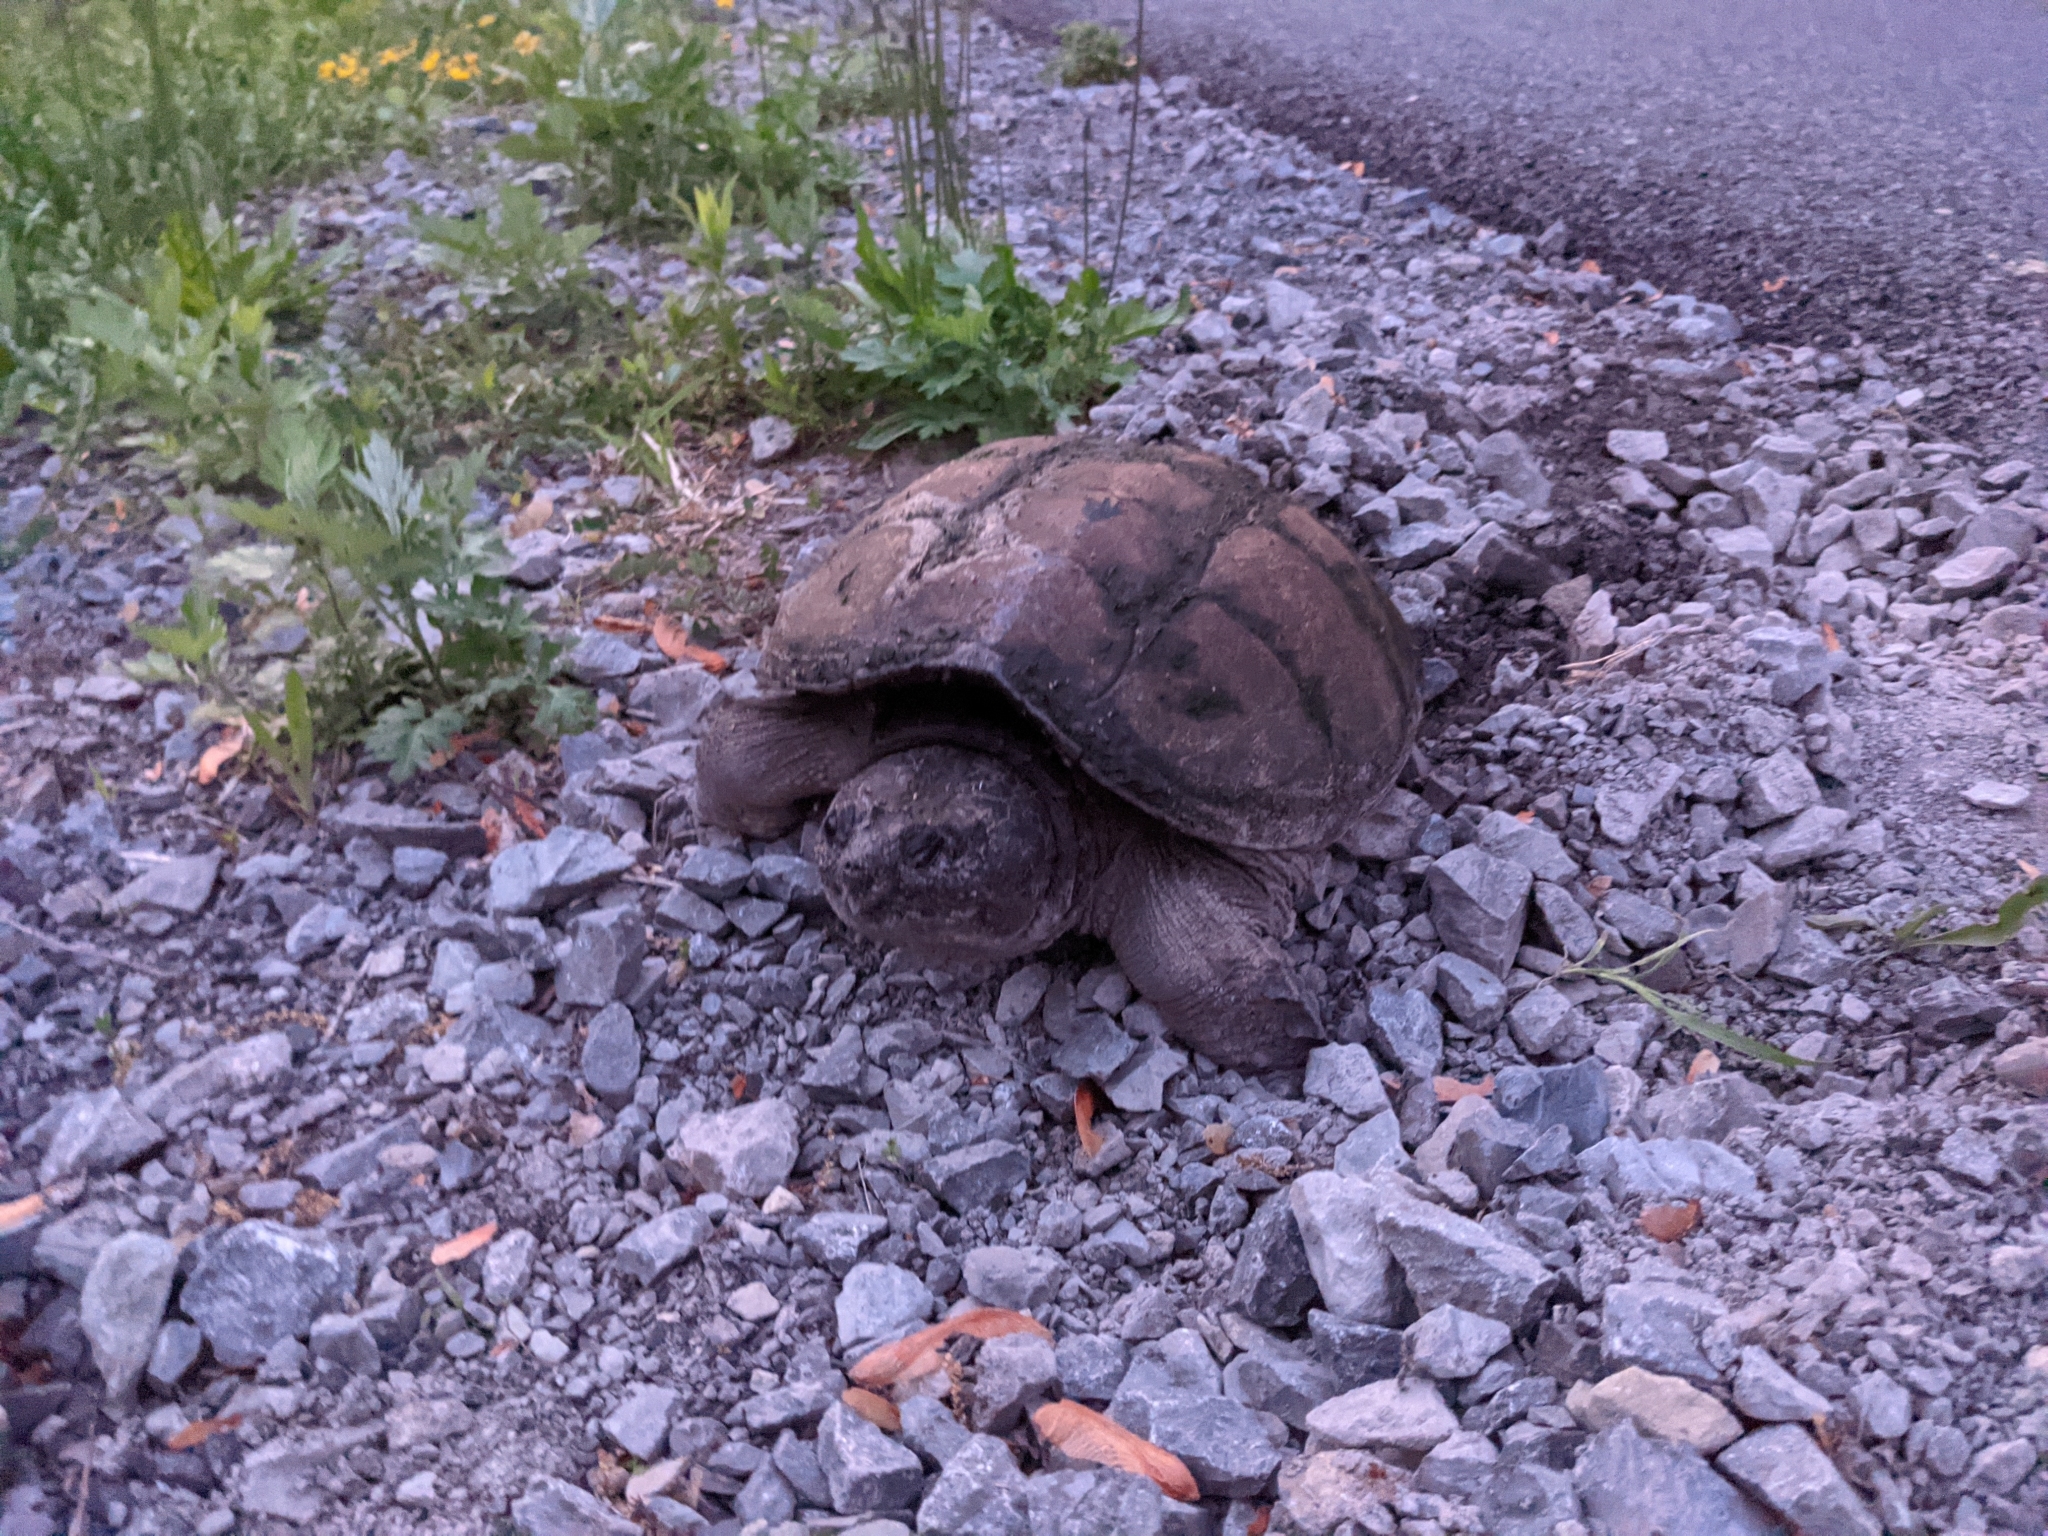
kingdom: Animalia
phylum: Chordata
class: Testudines
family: Chelydridae
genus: Chelydra
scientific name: Chelydra serpentina
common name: Common snapping turtle
